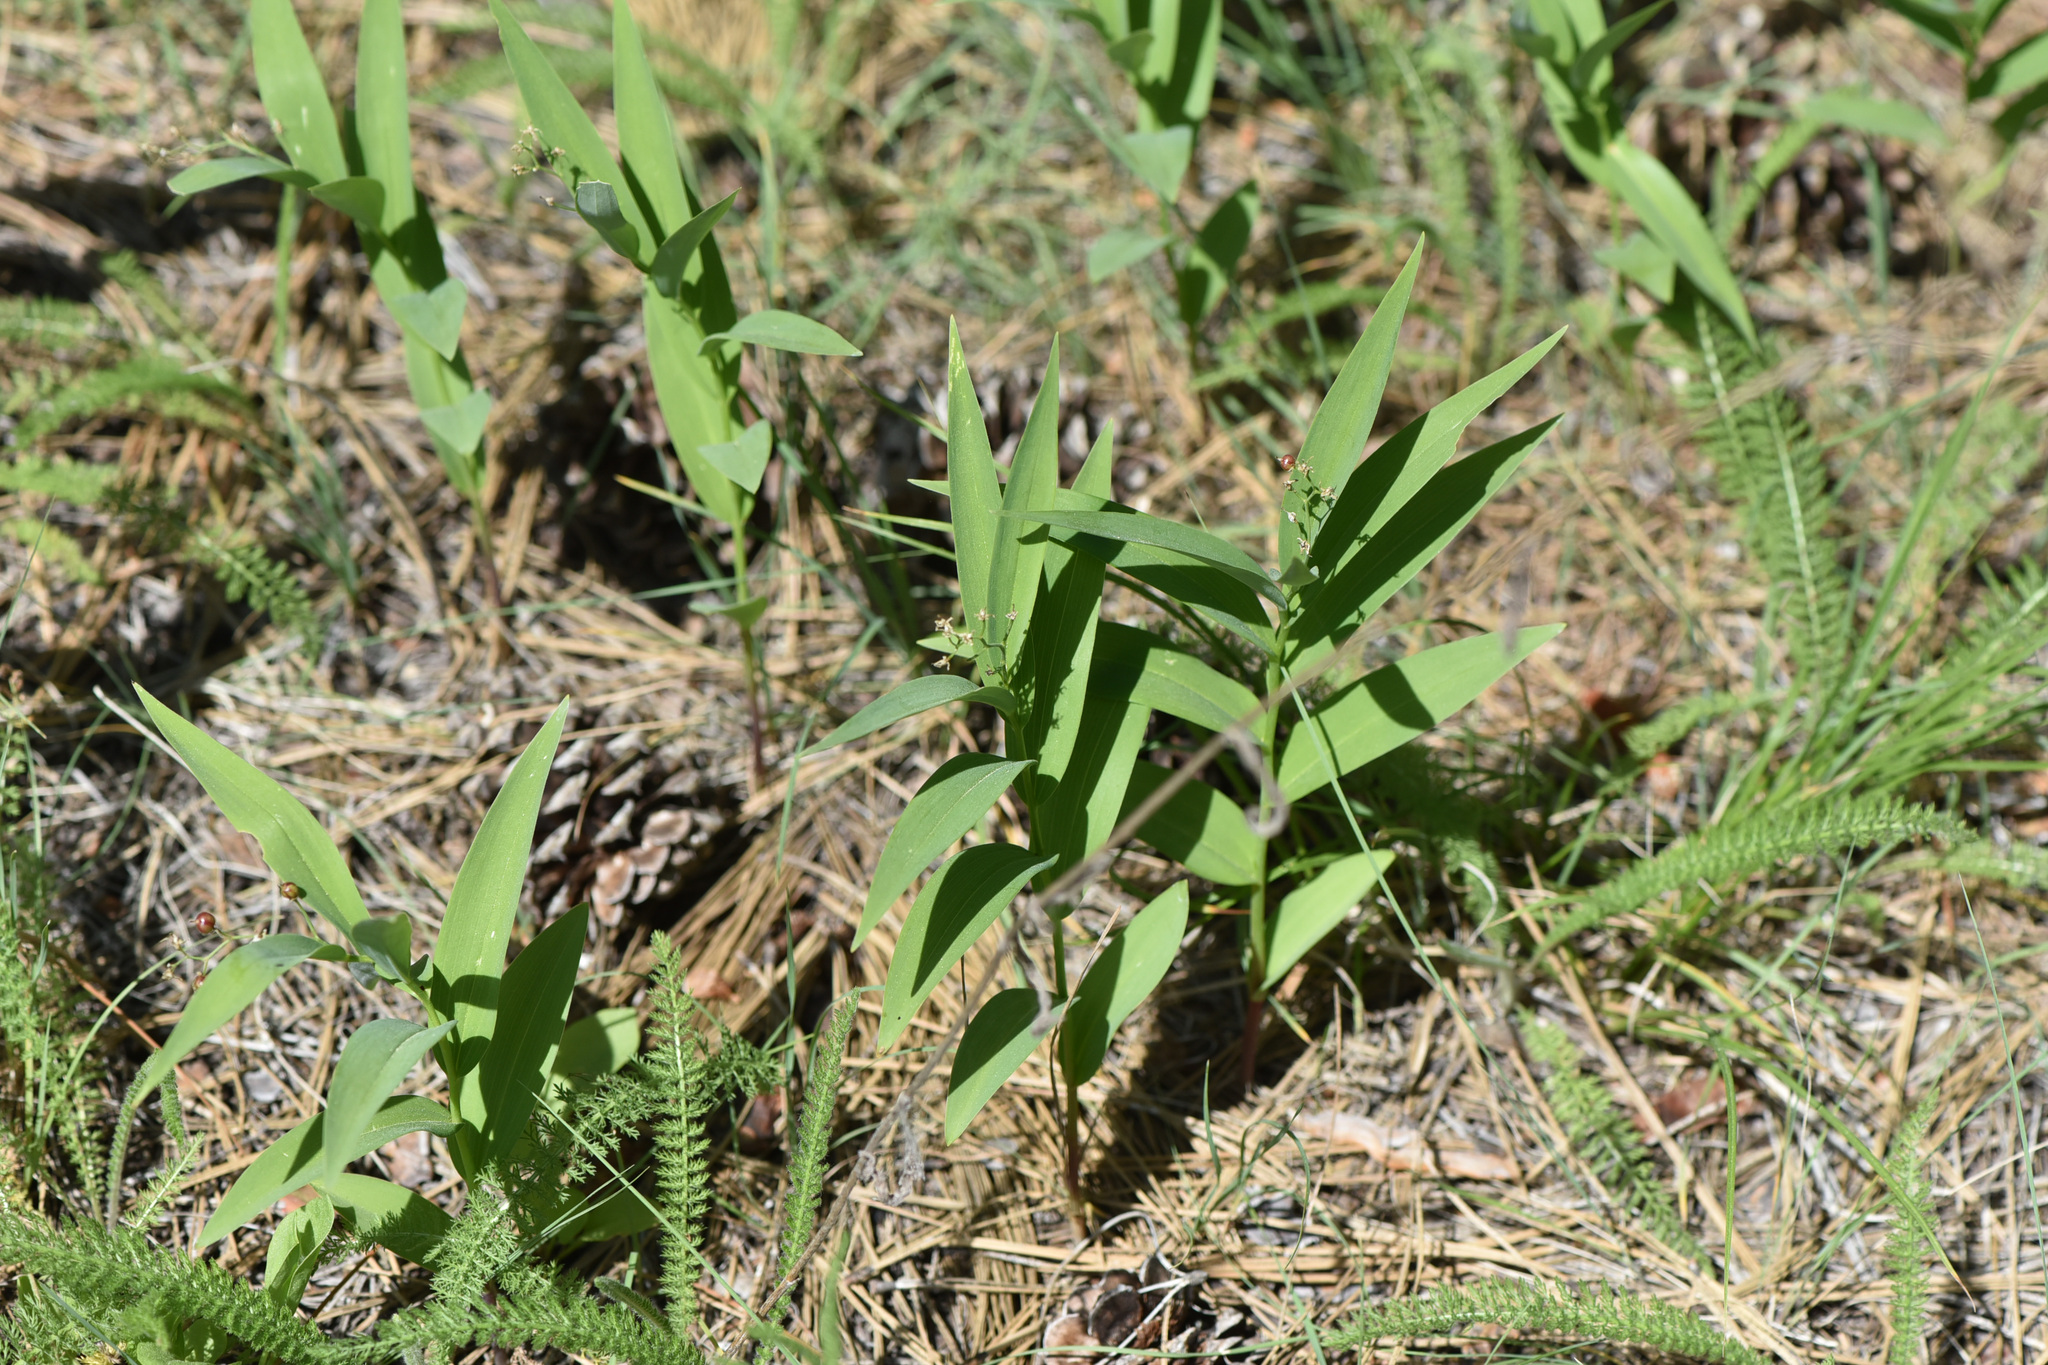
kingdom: Plantae
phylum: Tracheophyta
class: Liliopsida
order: Asparagales
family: Asparagaceae
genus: Maianthemum
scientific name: Maianthemum stellatum
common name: Little false solomon's seal
